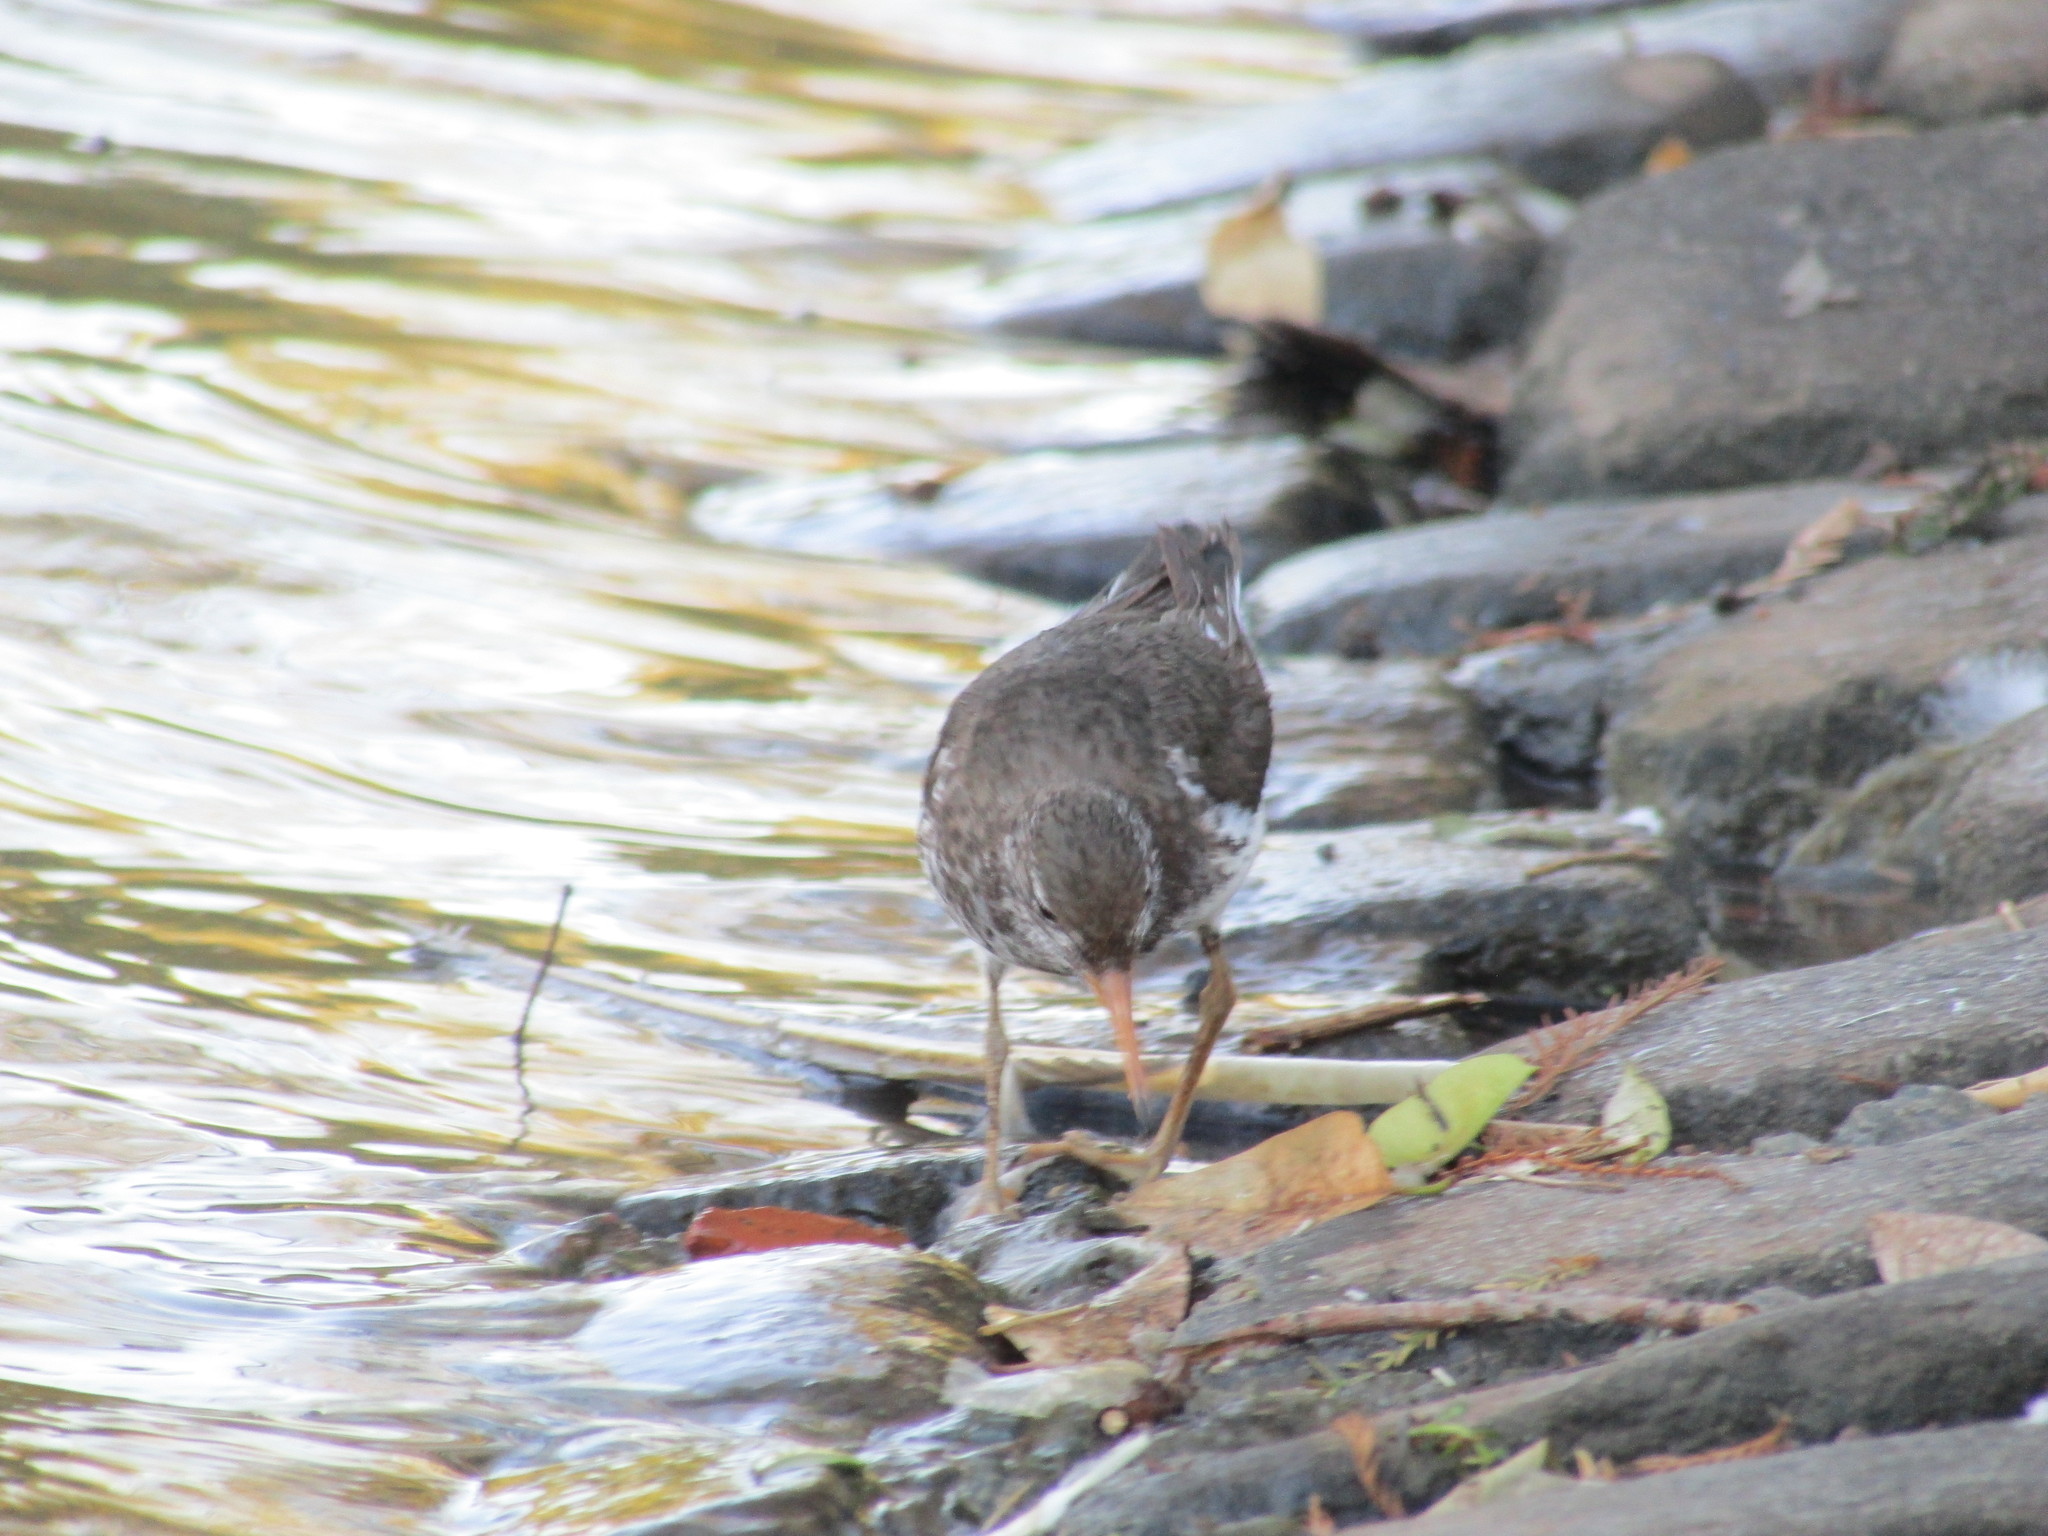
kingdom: Animalia
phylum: Chordata
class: Aves
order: Charadriiformes
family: Scolopacidae
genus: Actitis
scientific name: Actitis macularius
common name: Spotted sandpiper
